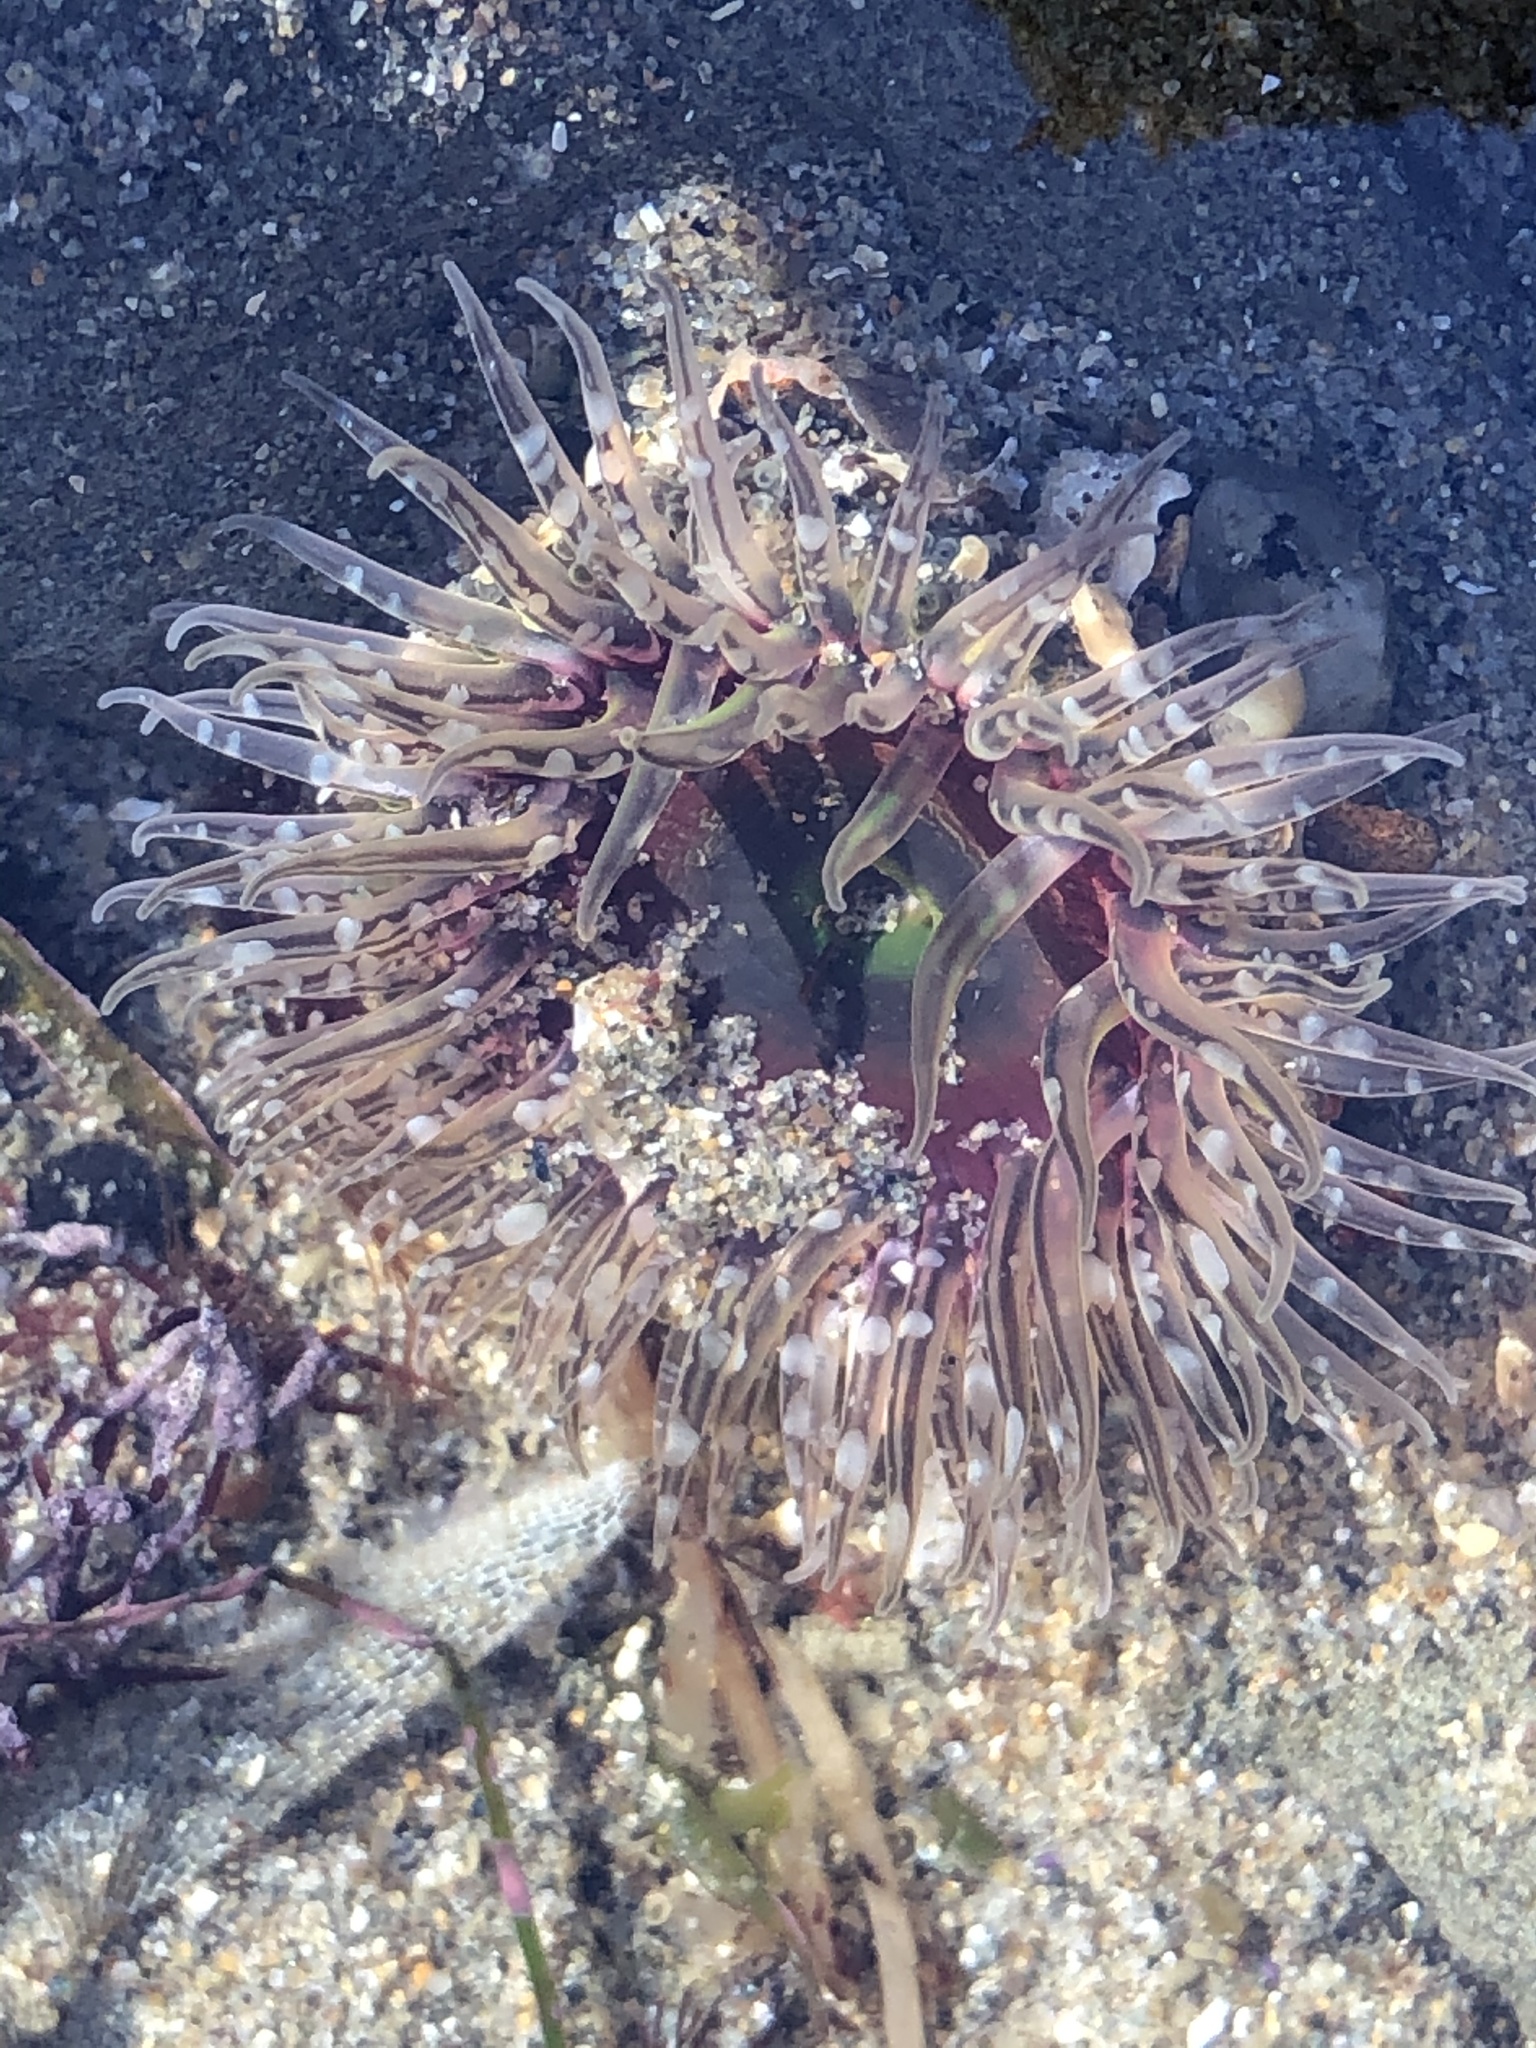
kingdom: Animalia
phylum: Cnidaria
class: Anthozoa
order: Actiniaria
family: Actiniidae
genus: Anthopleura
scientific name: Anthopleura artemisia
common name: Buried sea anemone
